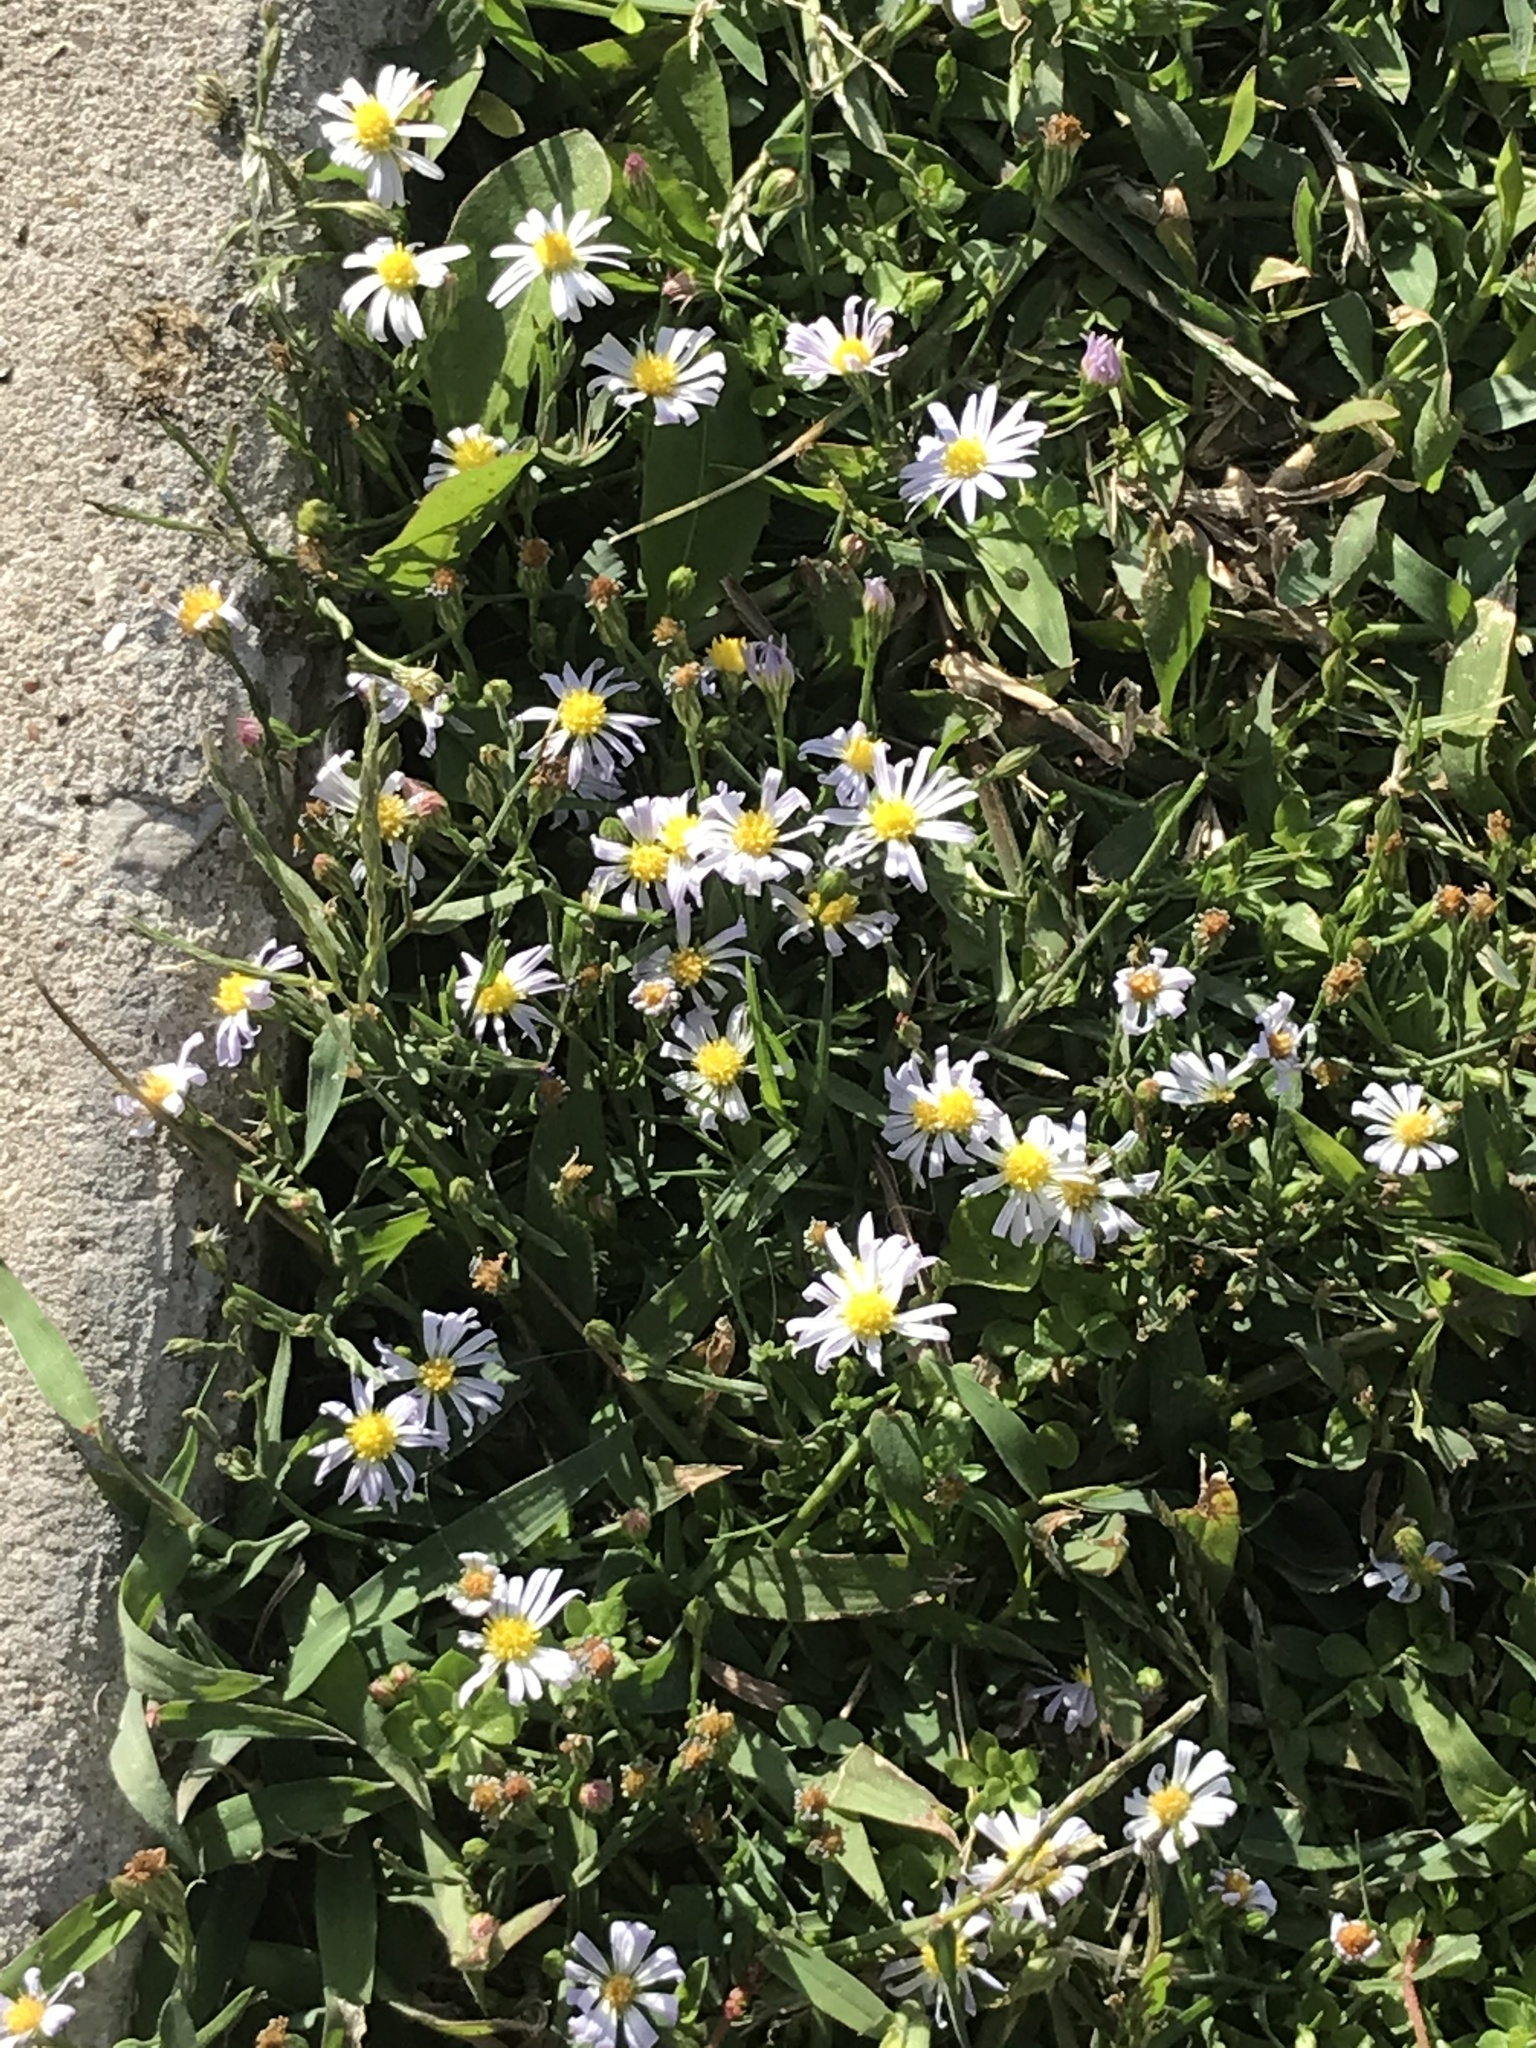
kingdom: Plantae
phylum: Tracheophyta
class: Magnoliopsida
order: Asterales
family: Asteraceae
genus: Symphyotrichum
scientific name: Symphyotrichum divaricatum
